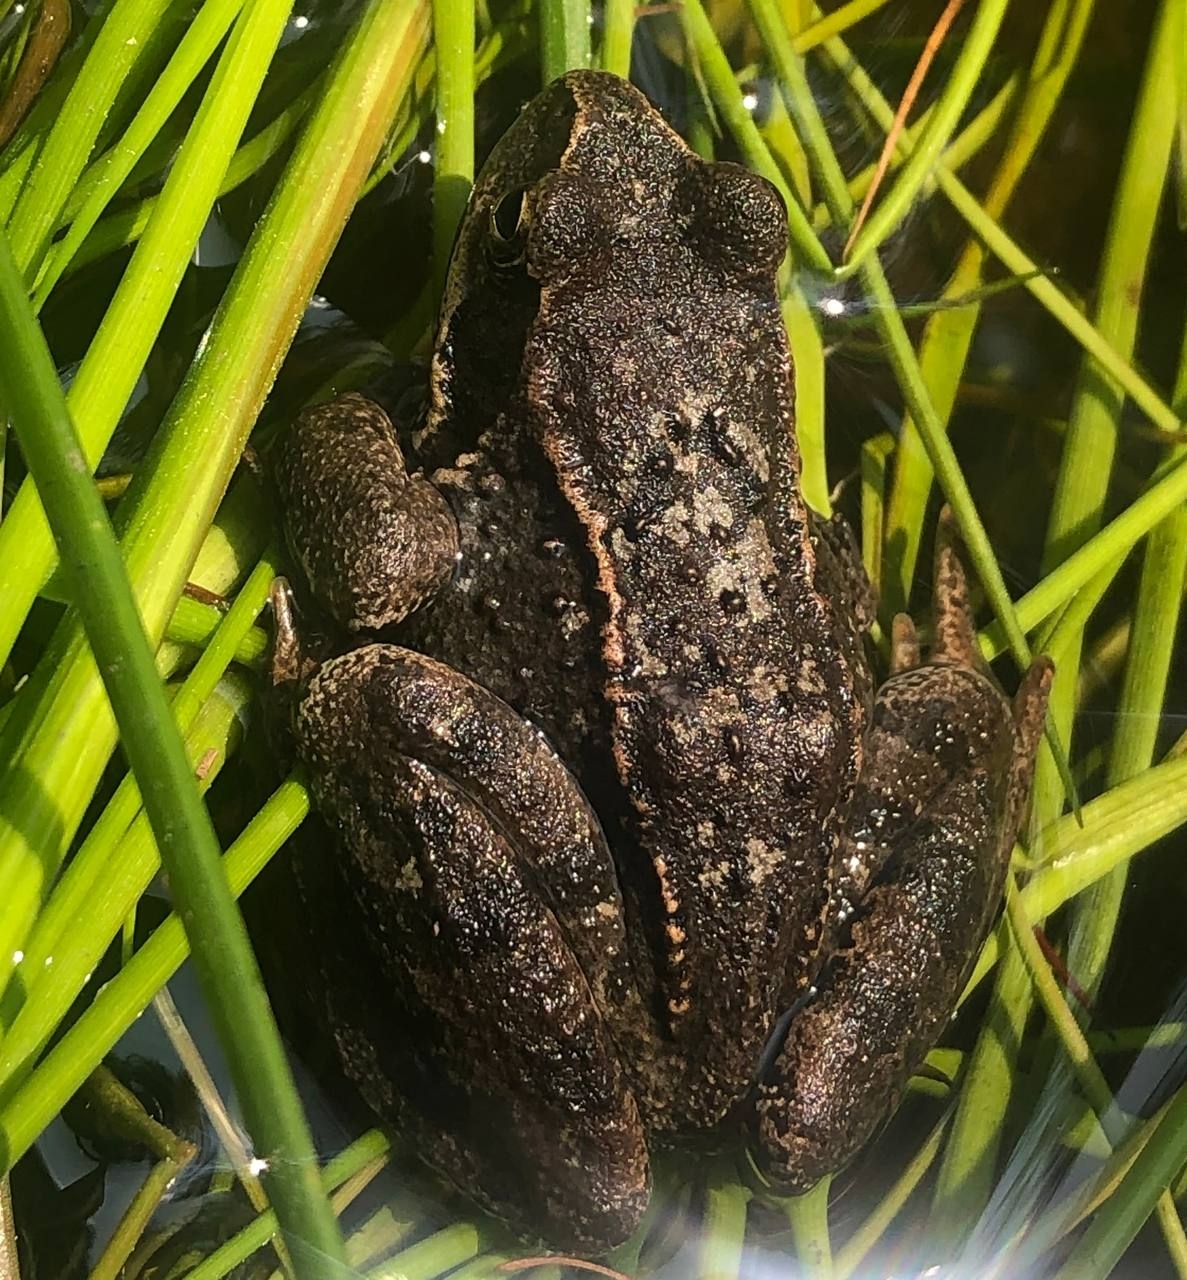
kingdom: Animalia
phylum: Chordata
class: Amphibia
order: Anura
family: Ranidae
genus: Rana
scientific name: Rana temporaria
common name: Common frog
